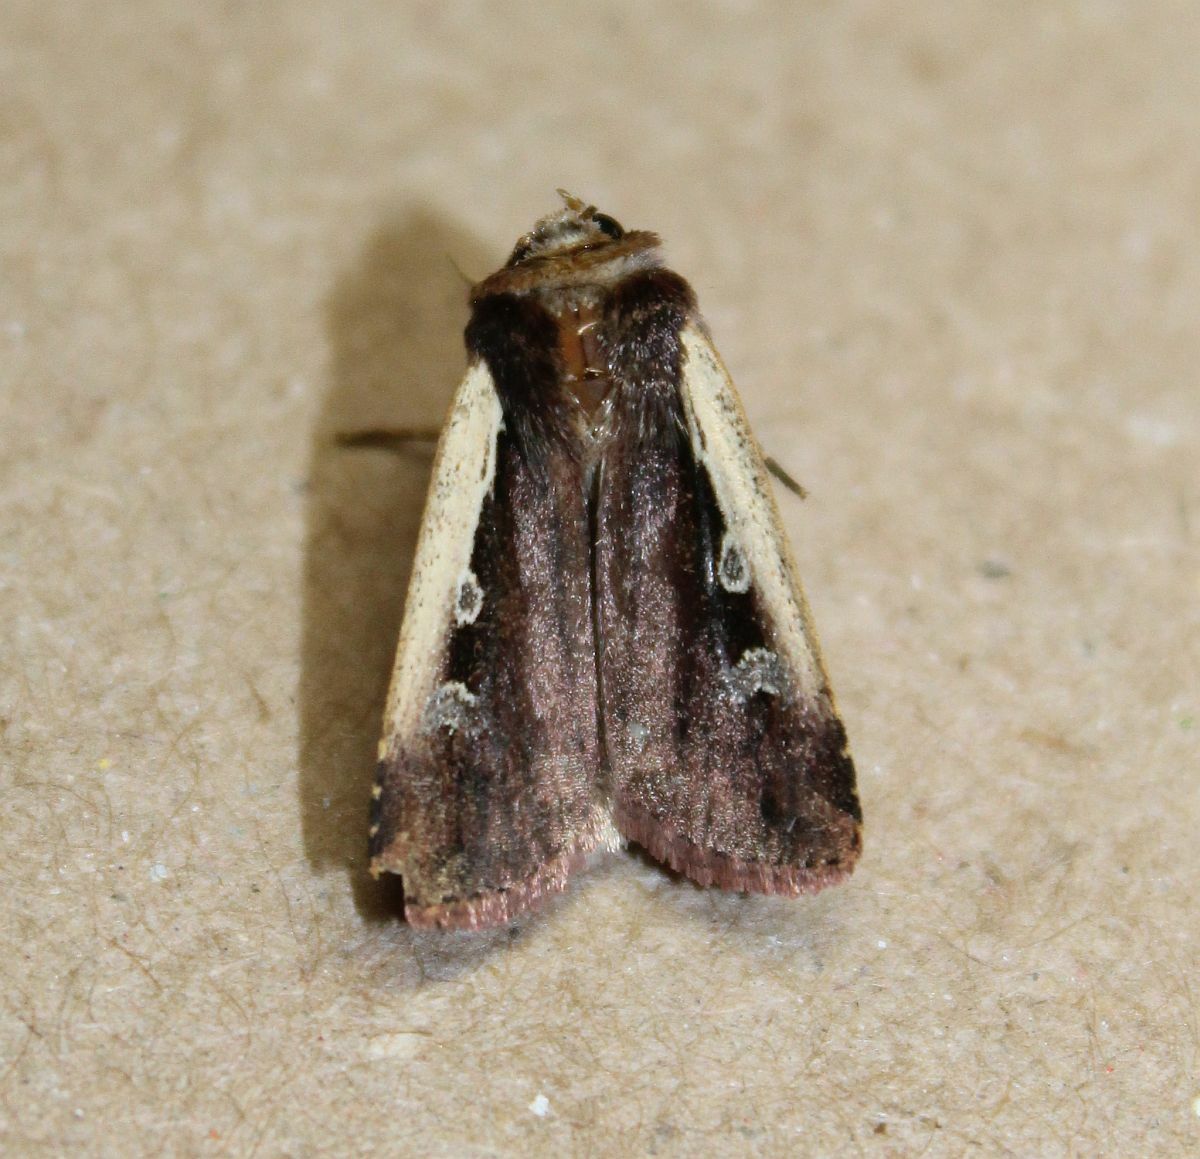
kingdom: Animalia
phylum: Arthropoda
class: Insecta
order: Lepidoptera
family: Noctuidae
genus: Ochropleura
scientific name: Ochropleura plecta
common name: Flame shoulder
